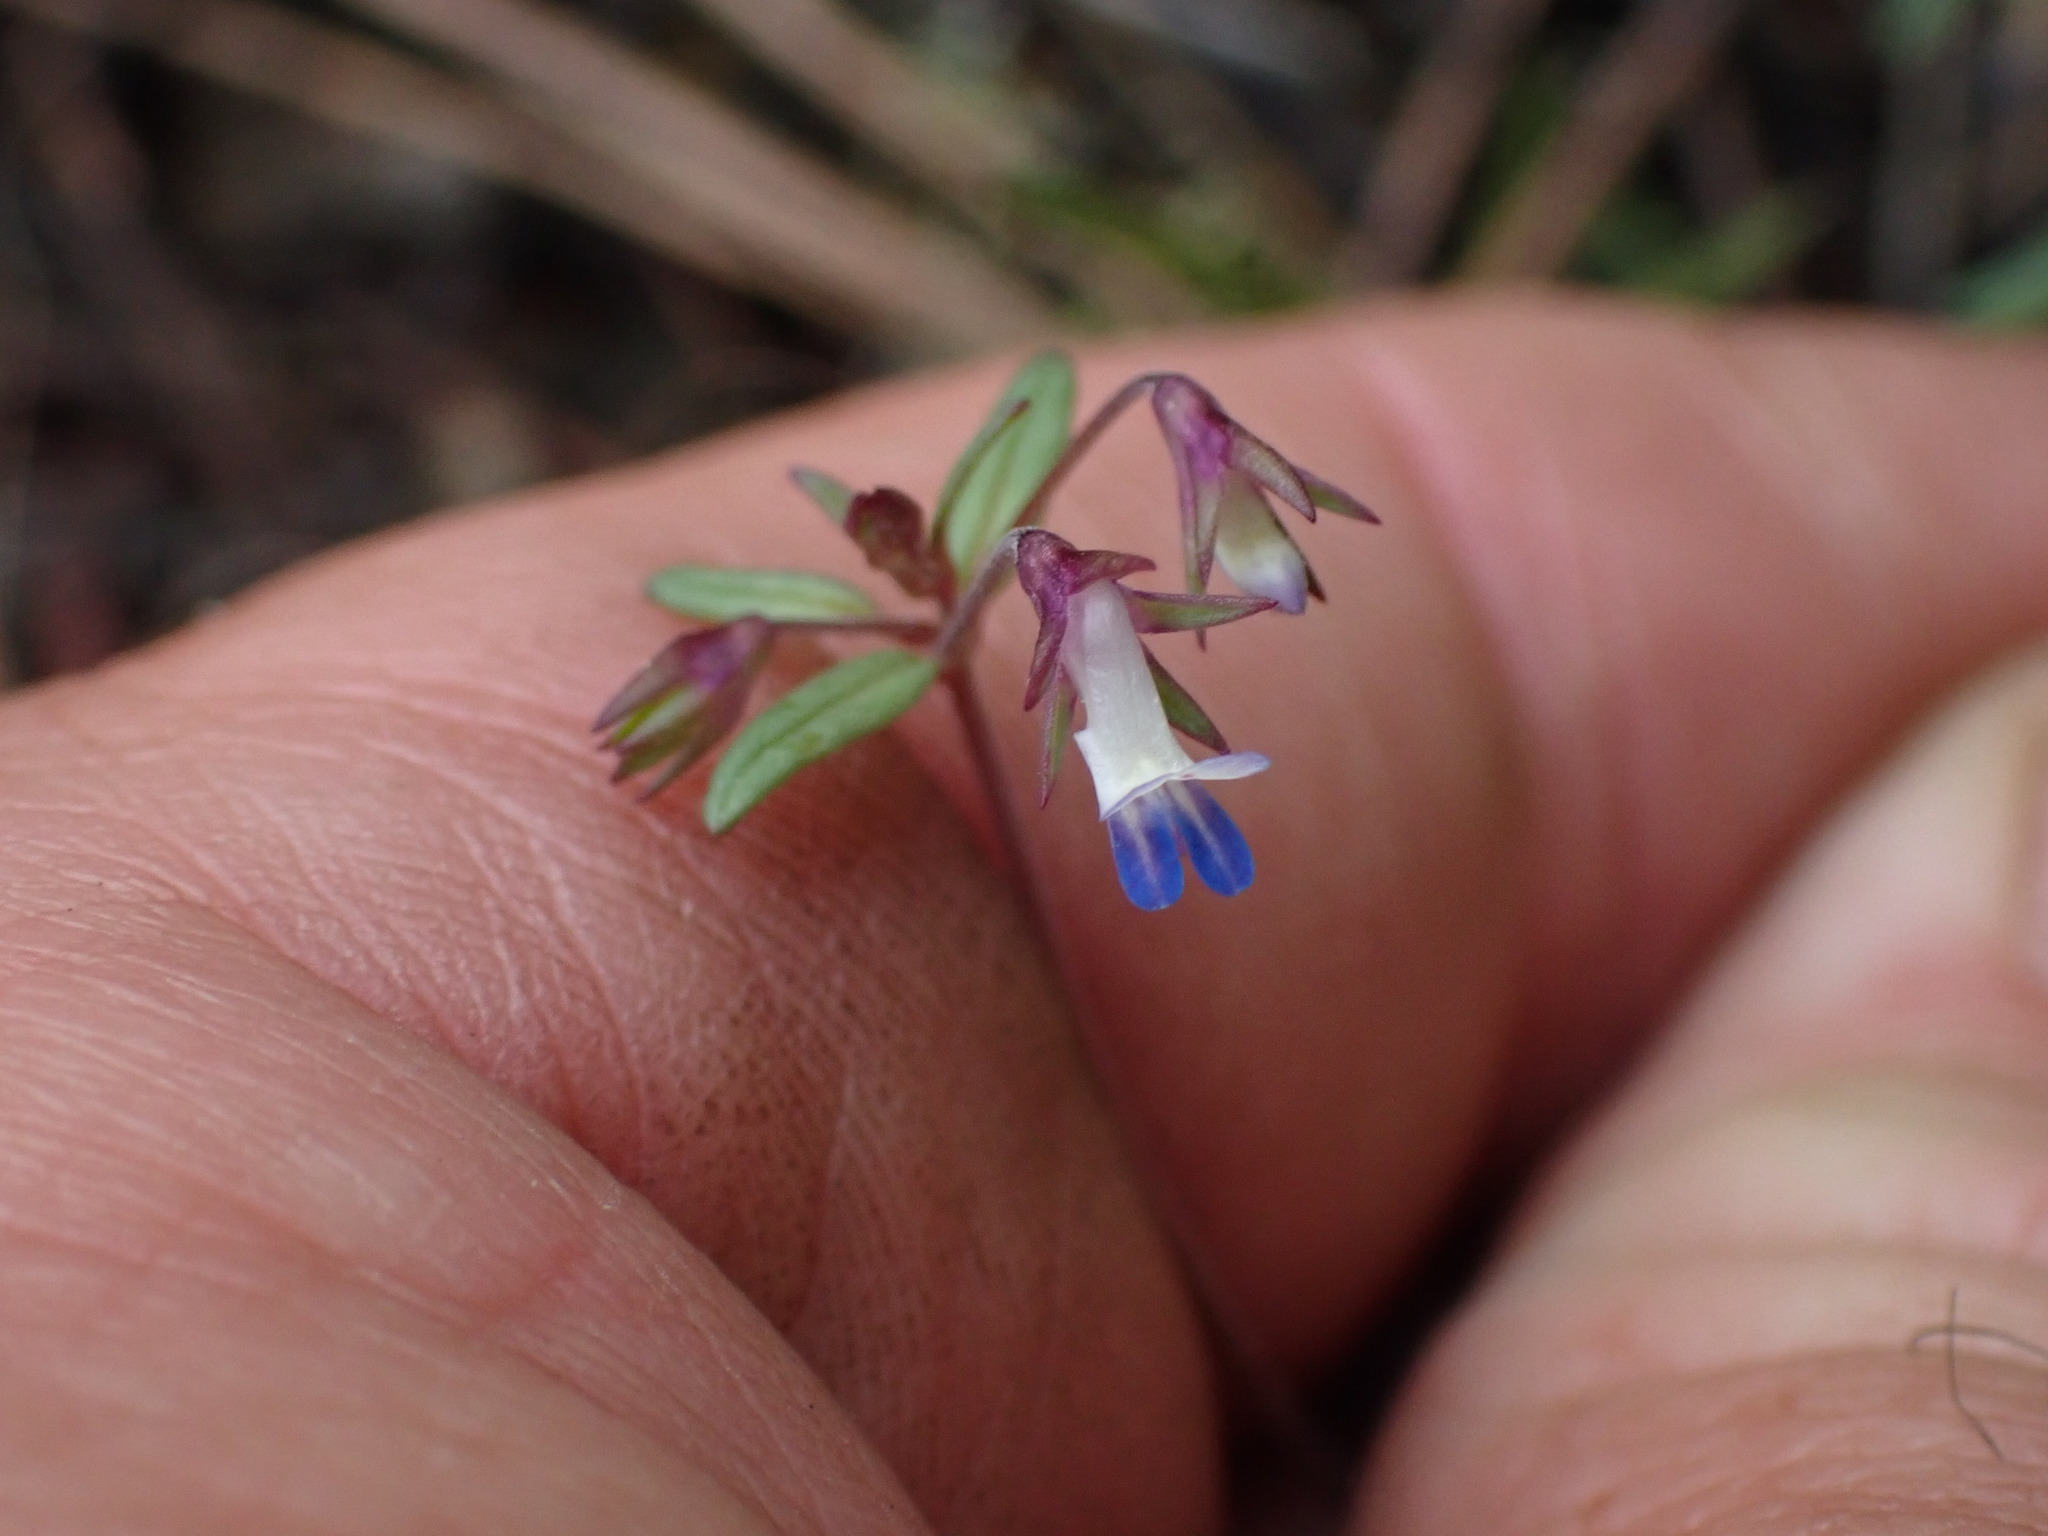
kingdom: Plantae
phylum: Tracheophyta
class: Magnoliopsida
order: Lamiales
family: Plantaginaceae
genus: Collinsia
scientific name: Collinsia parviflora
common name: Blue-lips
